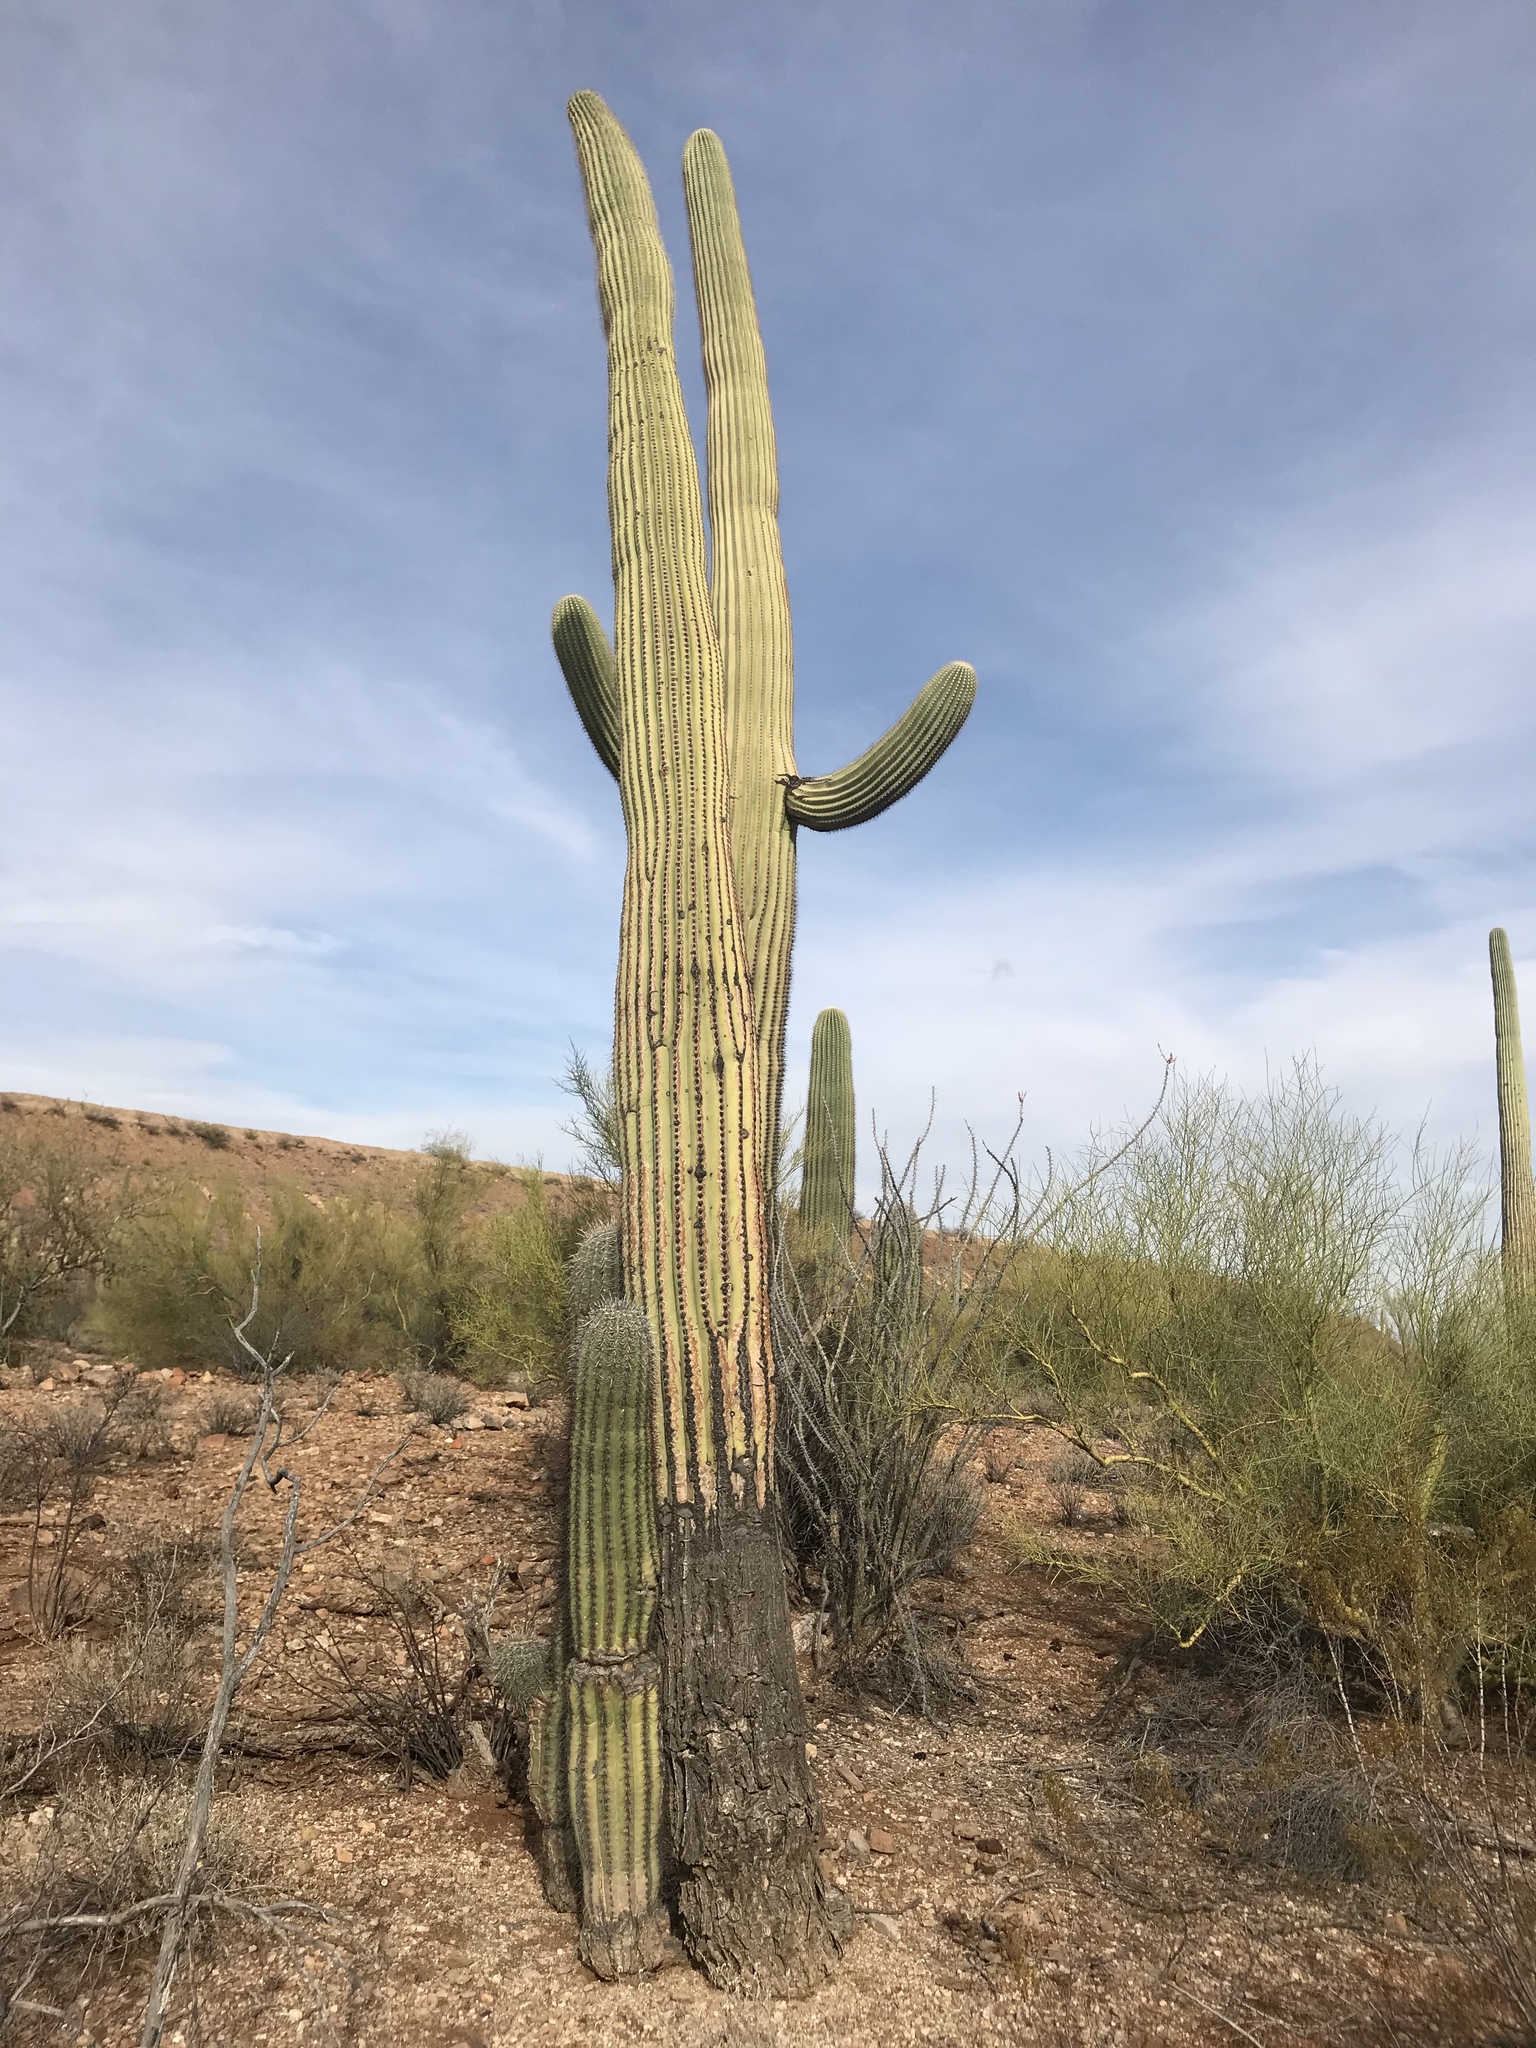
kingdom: Plantae
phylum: Tracheophyta
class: Magnoliopsida
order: Caryophyllales
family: Cactaceae
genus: Carnegiea
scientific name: Carnegiea gigantea
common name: Saguaro
